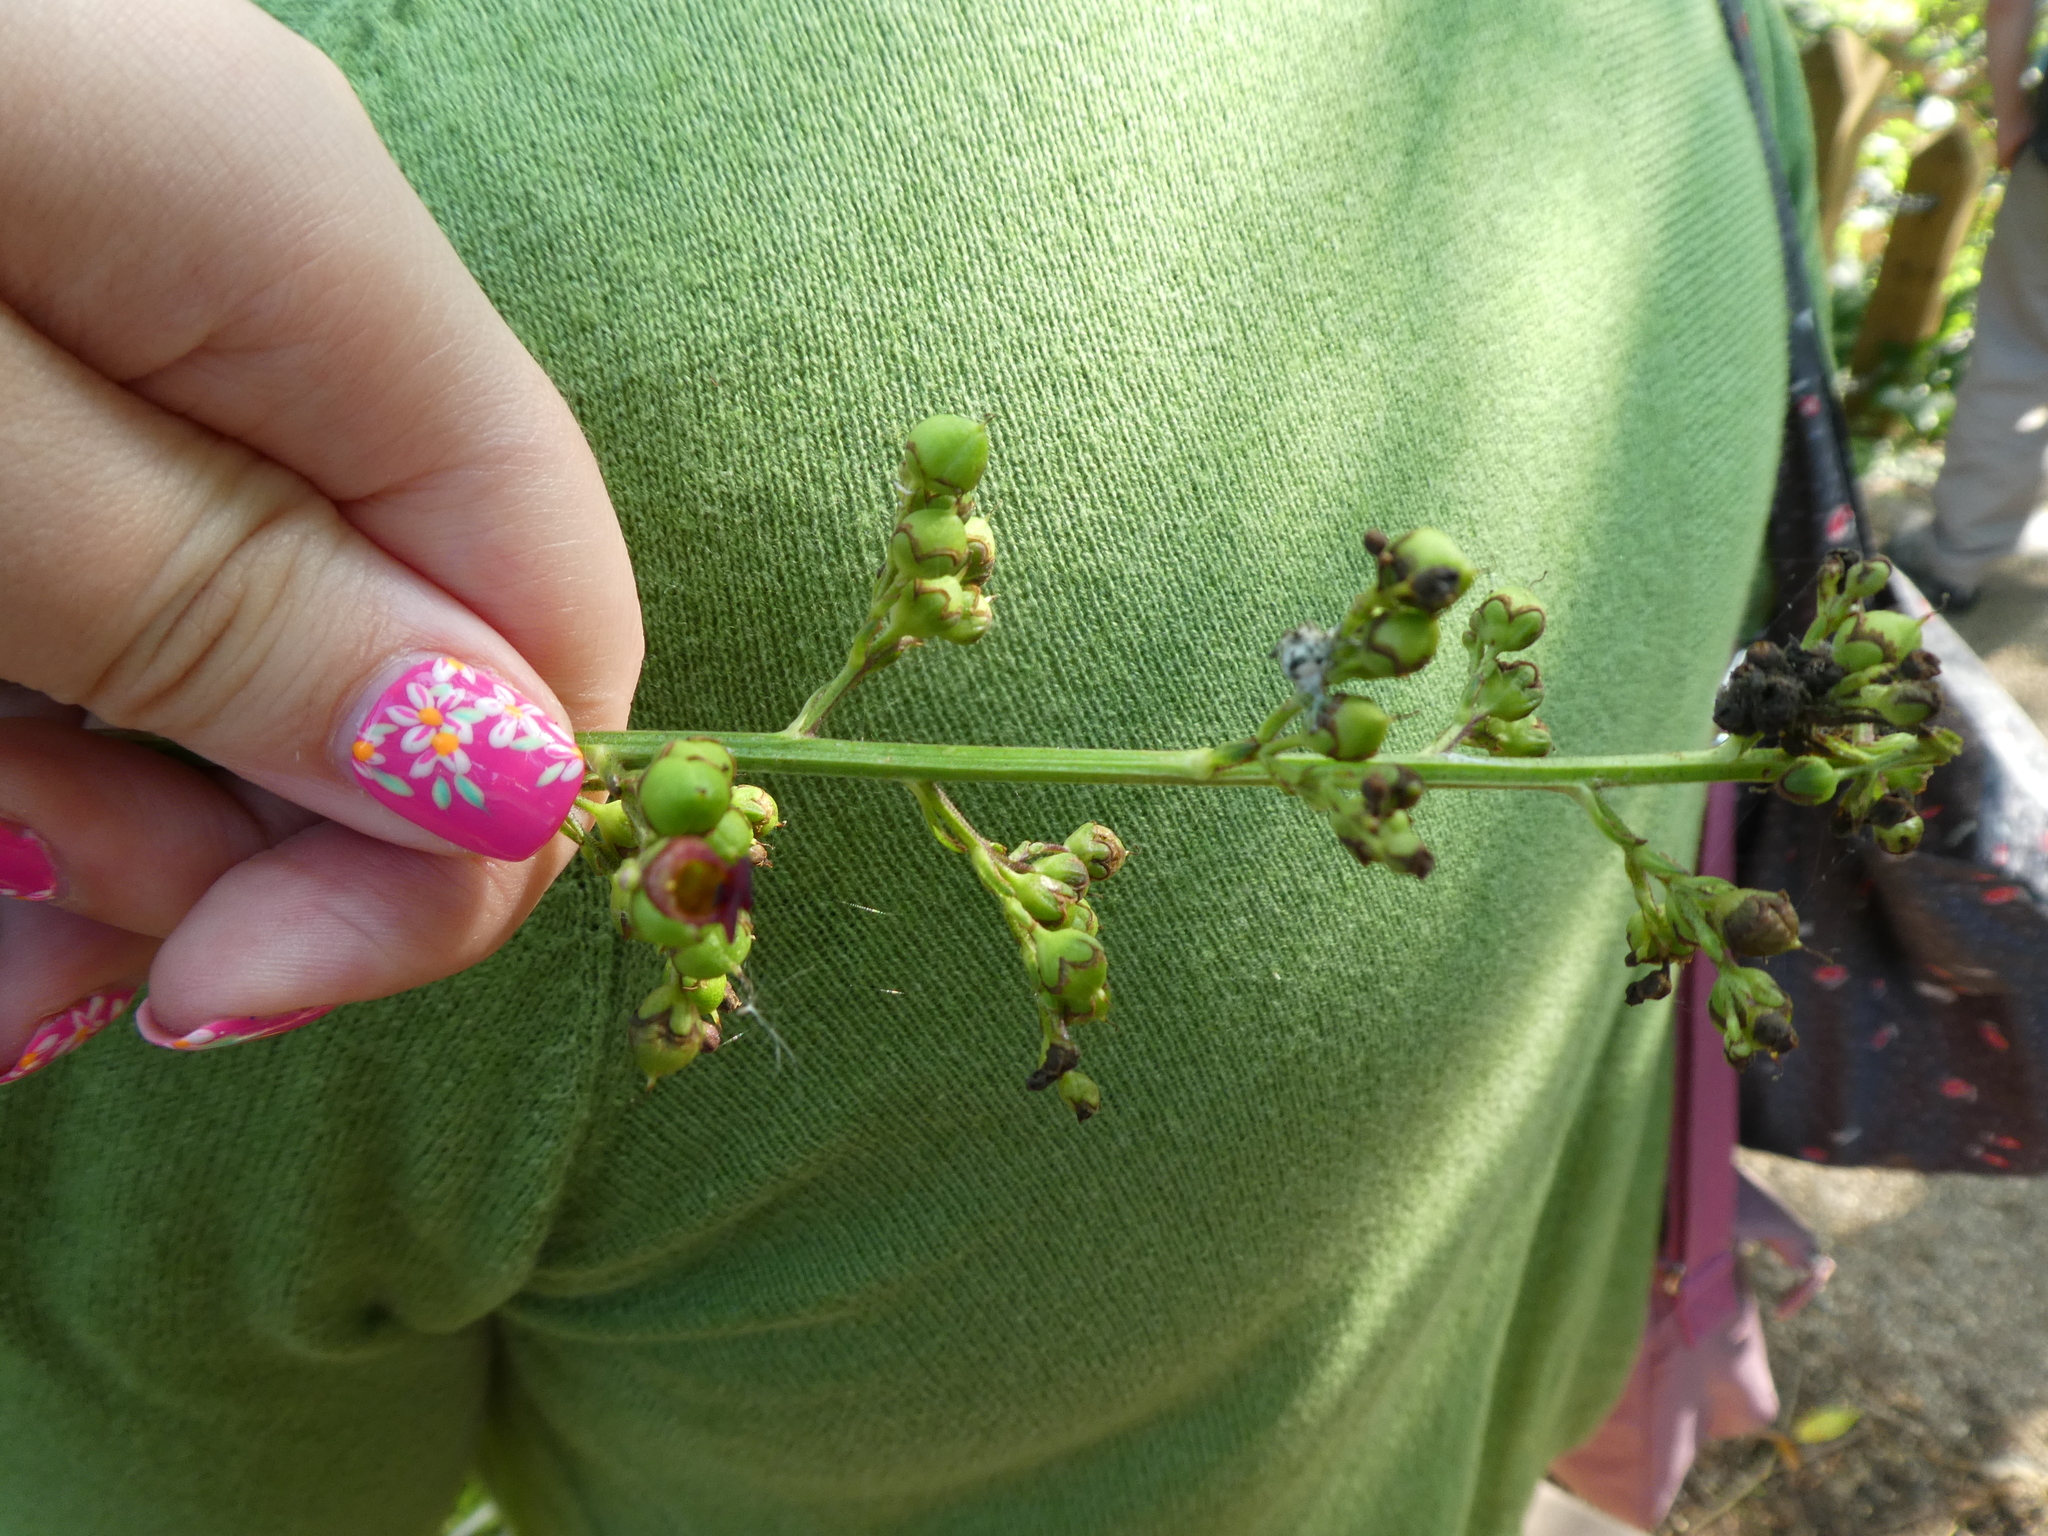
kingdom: Plantae
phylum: Tracheophyta
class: Magnoliopsida
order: Lamiales
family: Scrophulariaceae
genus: Scrophularia
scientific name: Scrophularia auriculata
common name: Water betony
